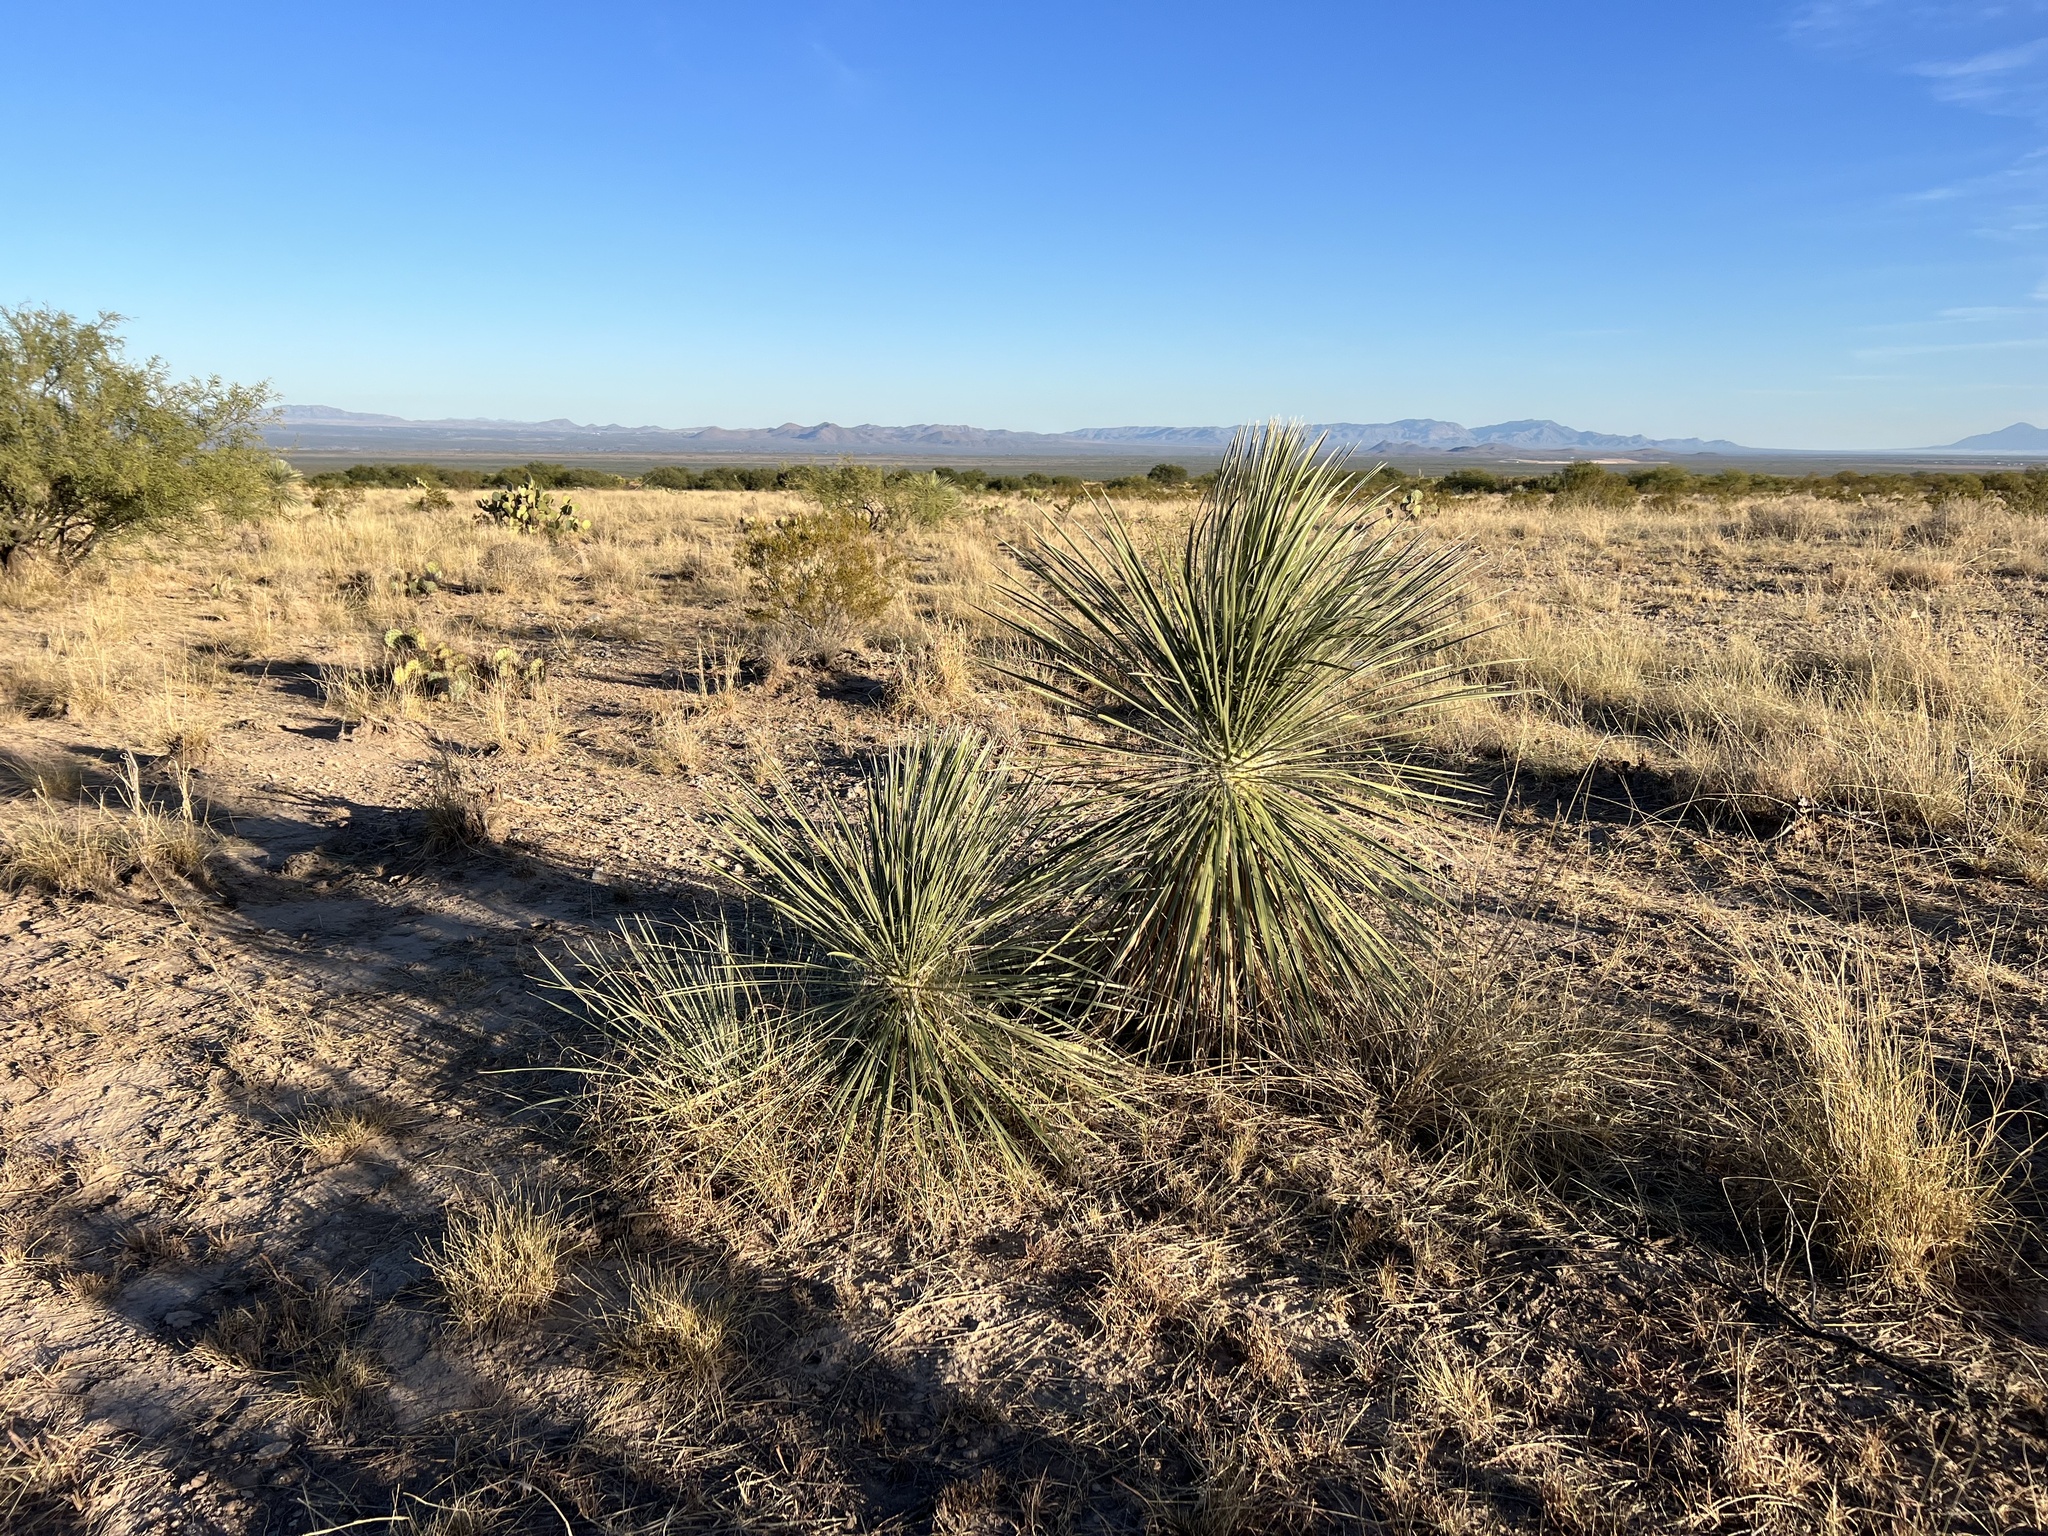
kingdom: Plantae
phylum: Tracheophyta
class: Liliopsida
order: Asparagales
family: Asparagaceae
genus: Yucca
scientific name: Yucca elata
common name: Palmella
